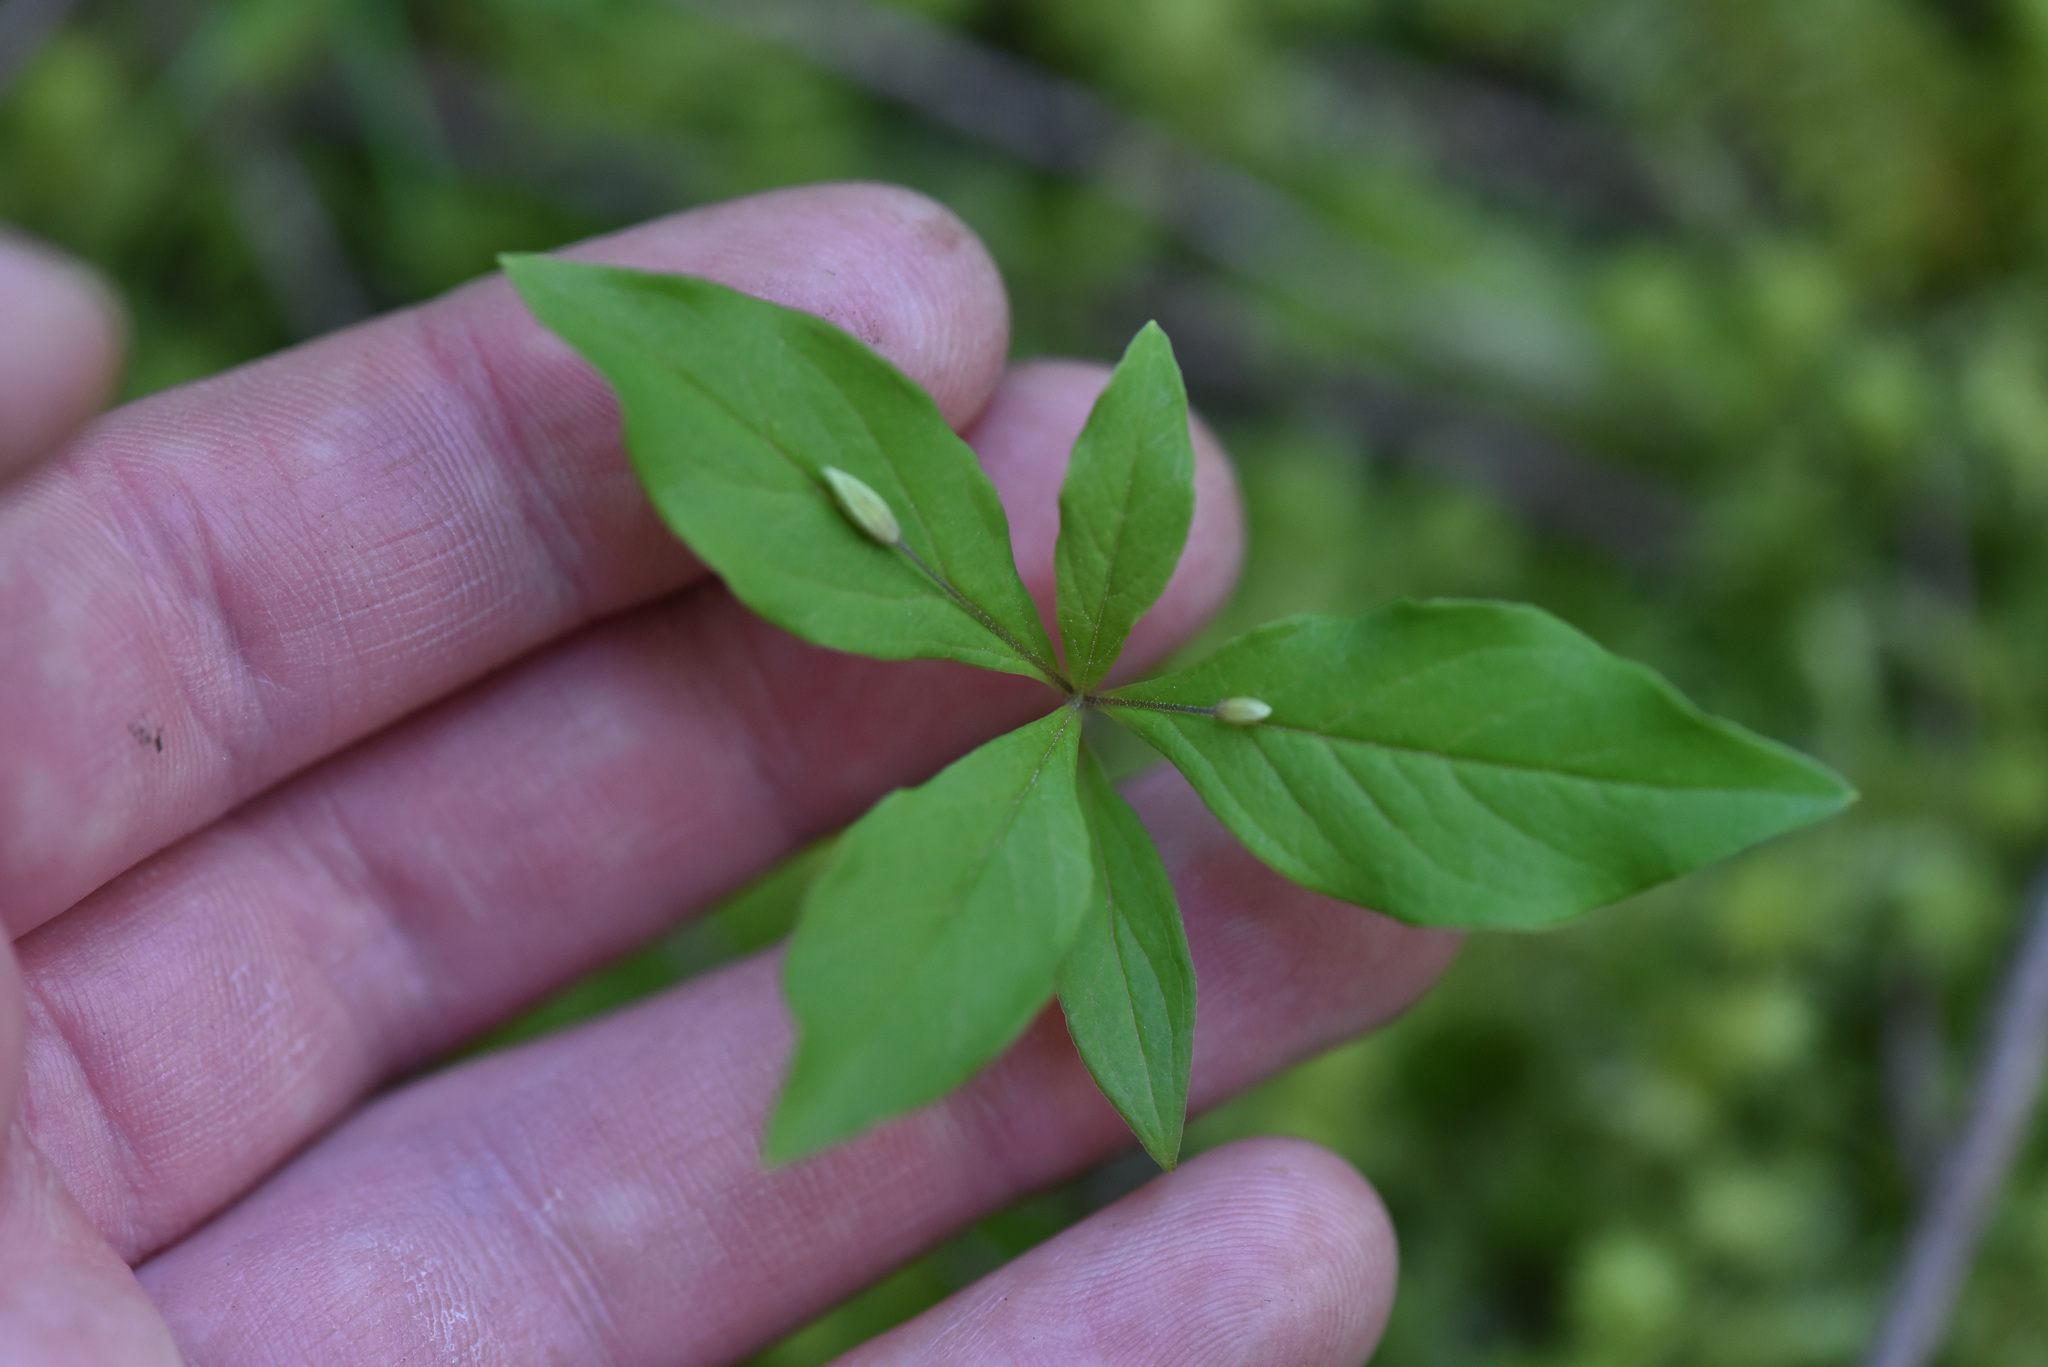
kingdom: Plantae
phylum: Tracheophyta
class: Magnoliopsida
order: Ericales
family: Primulaceae
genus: Lysimachia
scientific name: Lysimachia latifolia
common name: Pacific starflower
